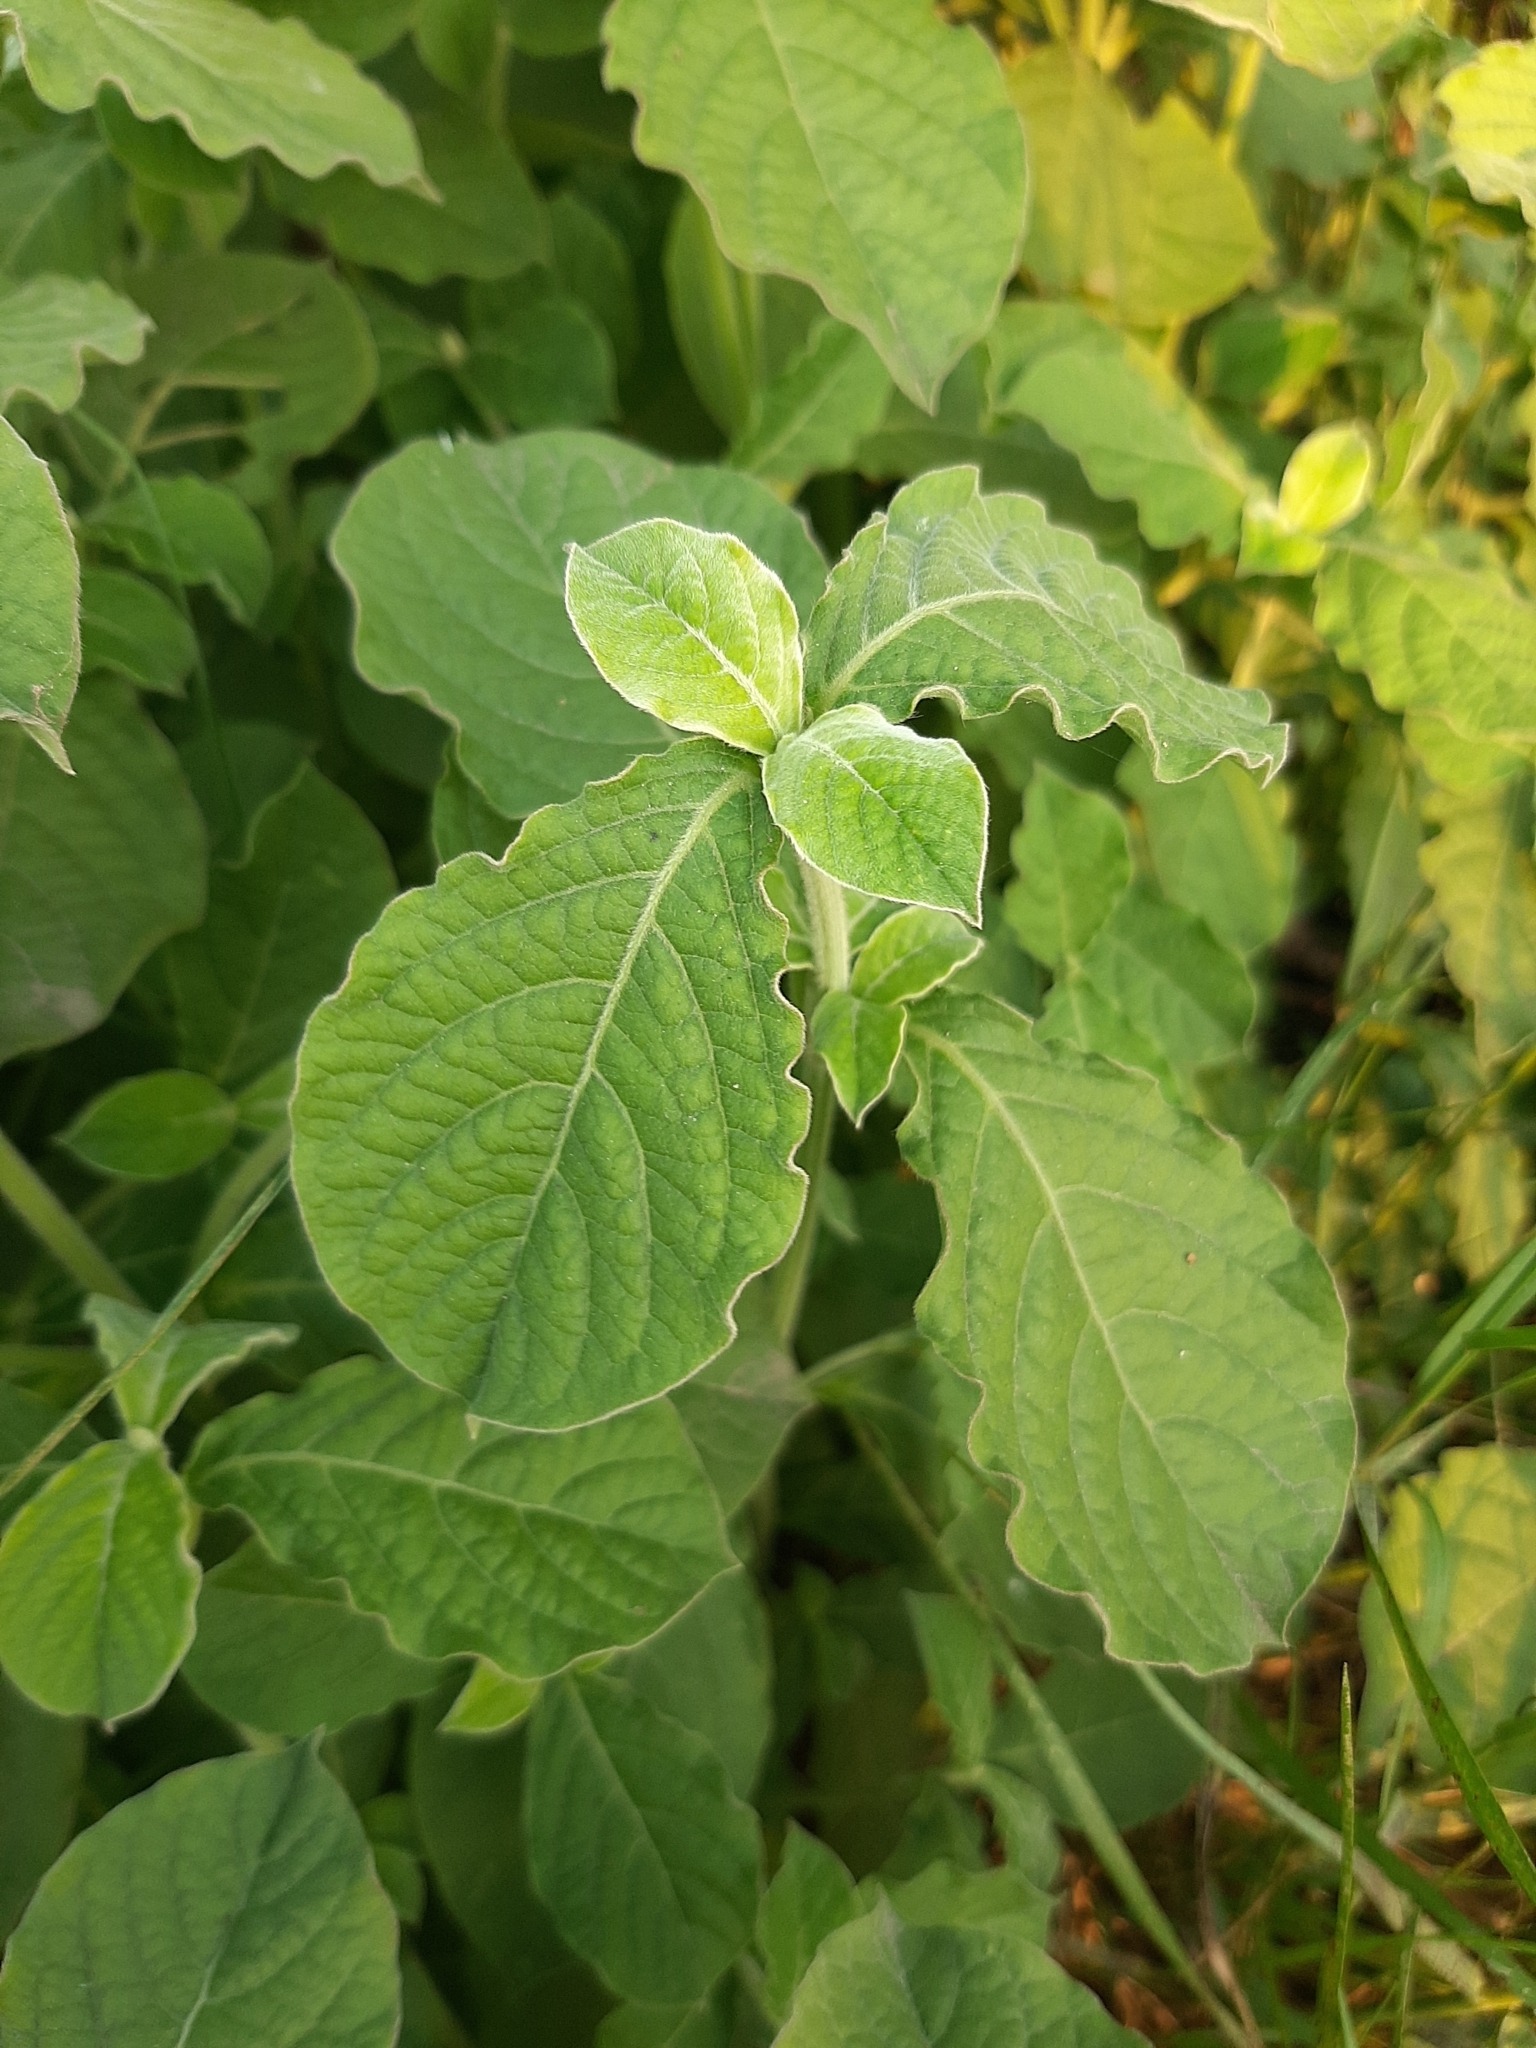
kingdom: Plantae
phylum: Tracheophyta
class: Magnoliopsida
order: Caryophyllales
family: Amaranthaceae
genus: Achyranthes
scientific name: Achyranthes aspera
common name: Devil's horsewhip
